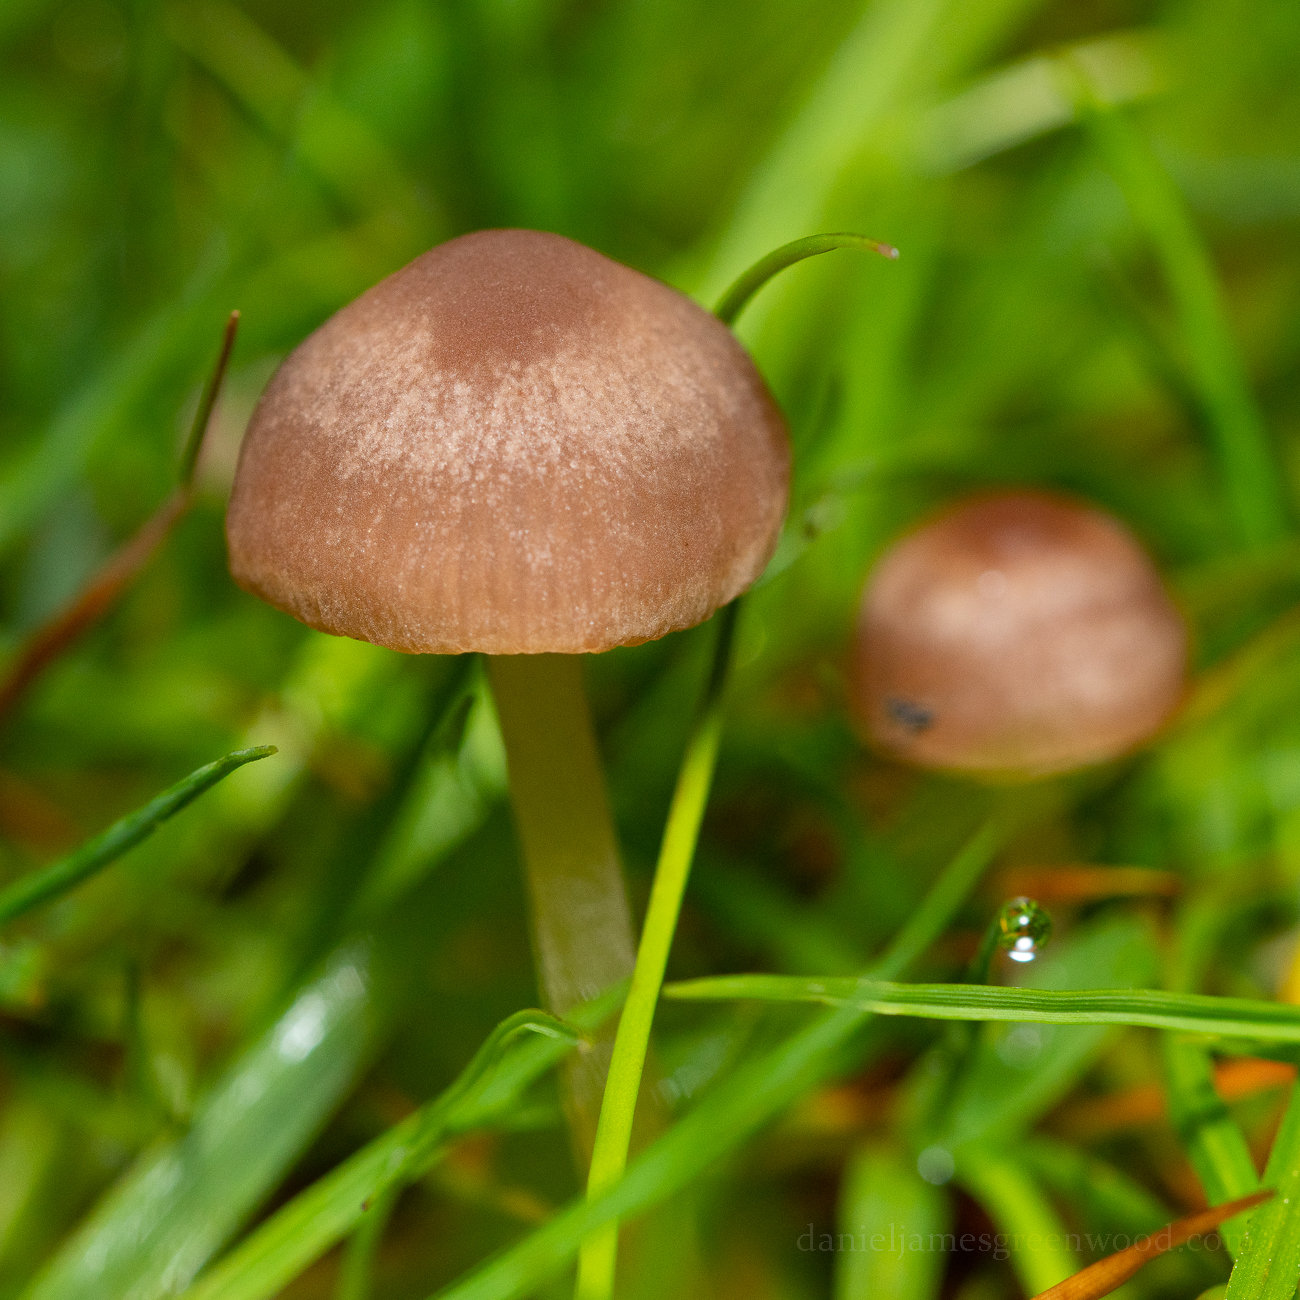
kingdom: Fungi
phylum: Basidiomycota
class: Agaricomycetes
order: Agaricales
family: Bolbitiaceae
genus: Panaeolina
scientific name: Panaeolina foenisecii
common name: Brown hay cap
